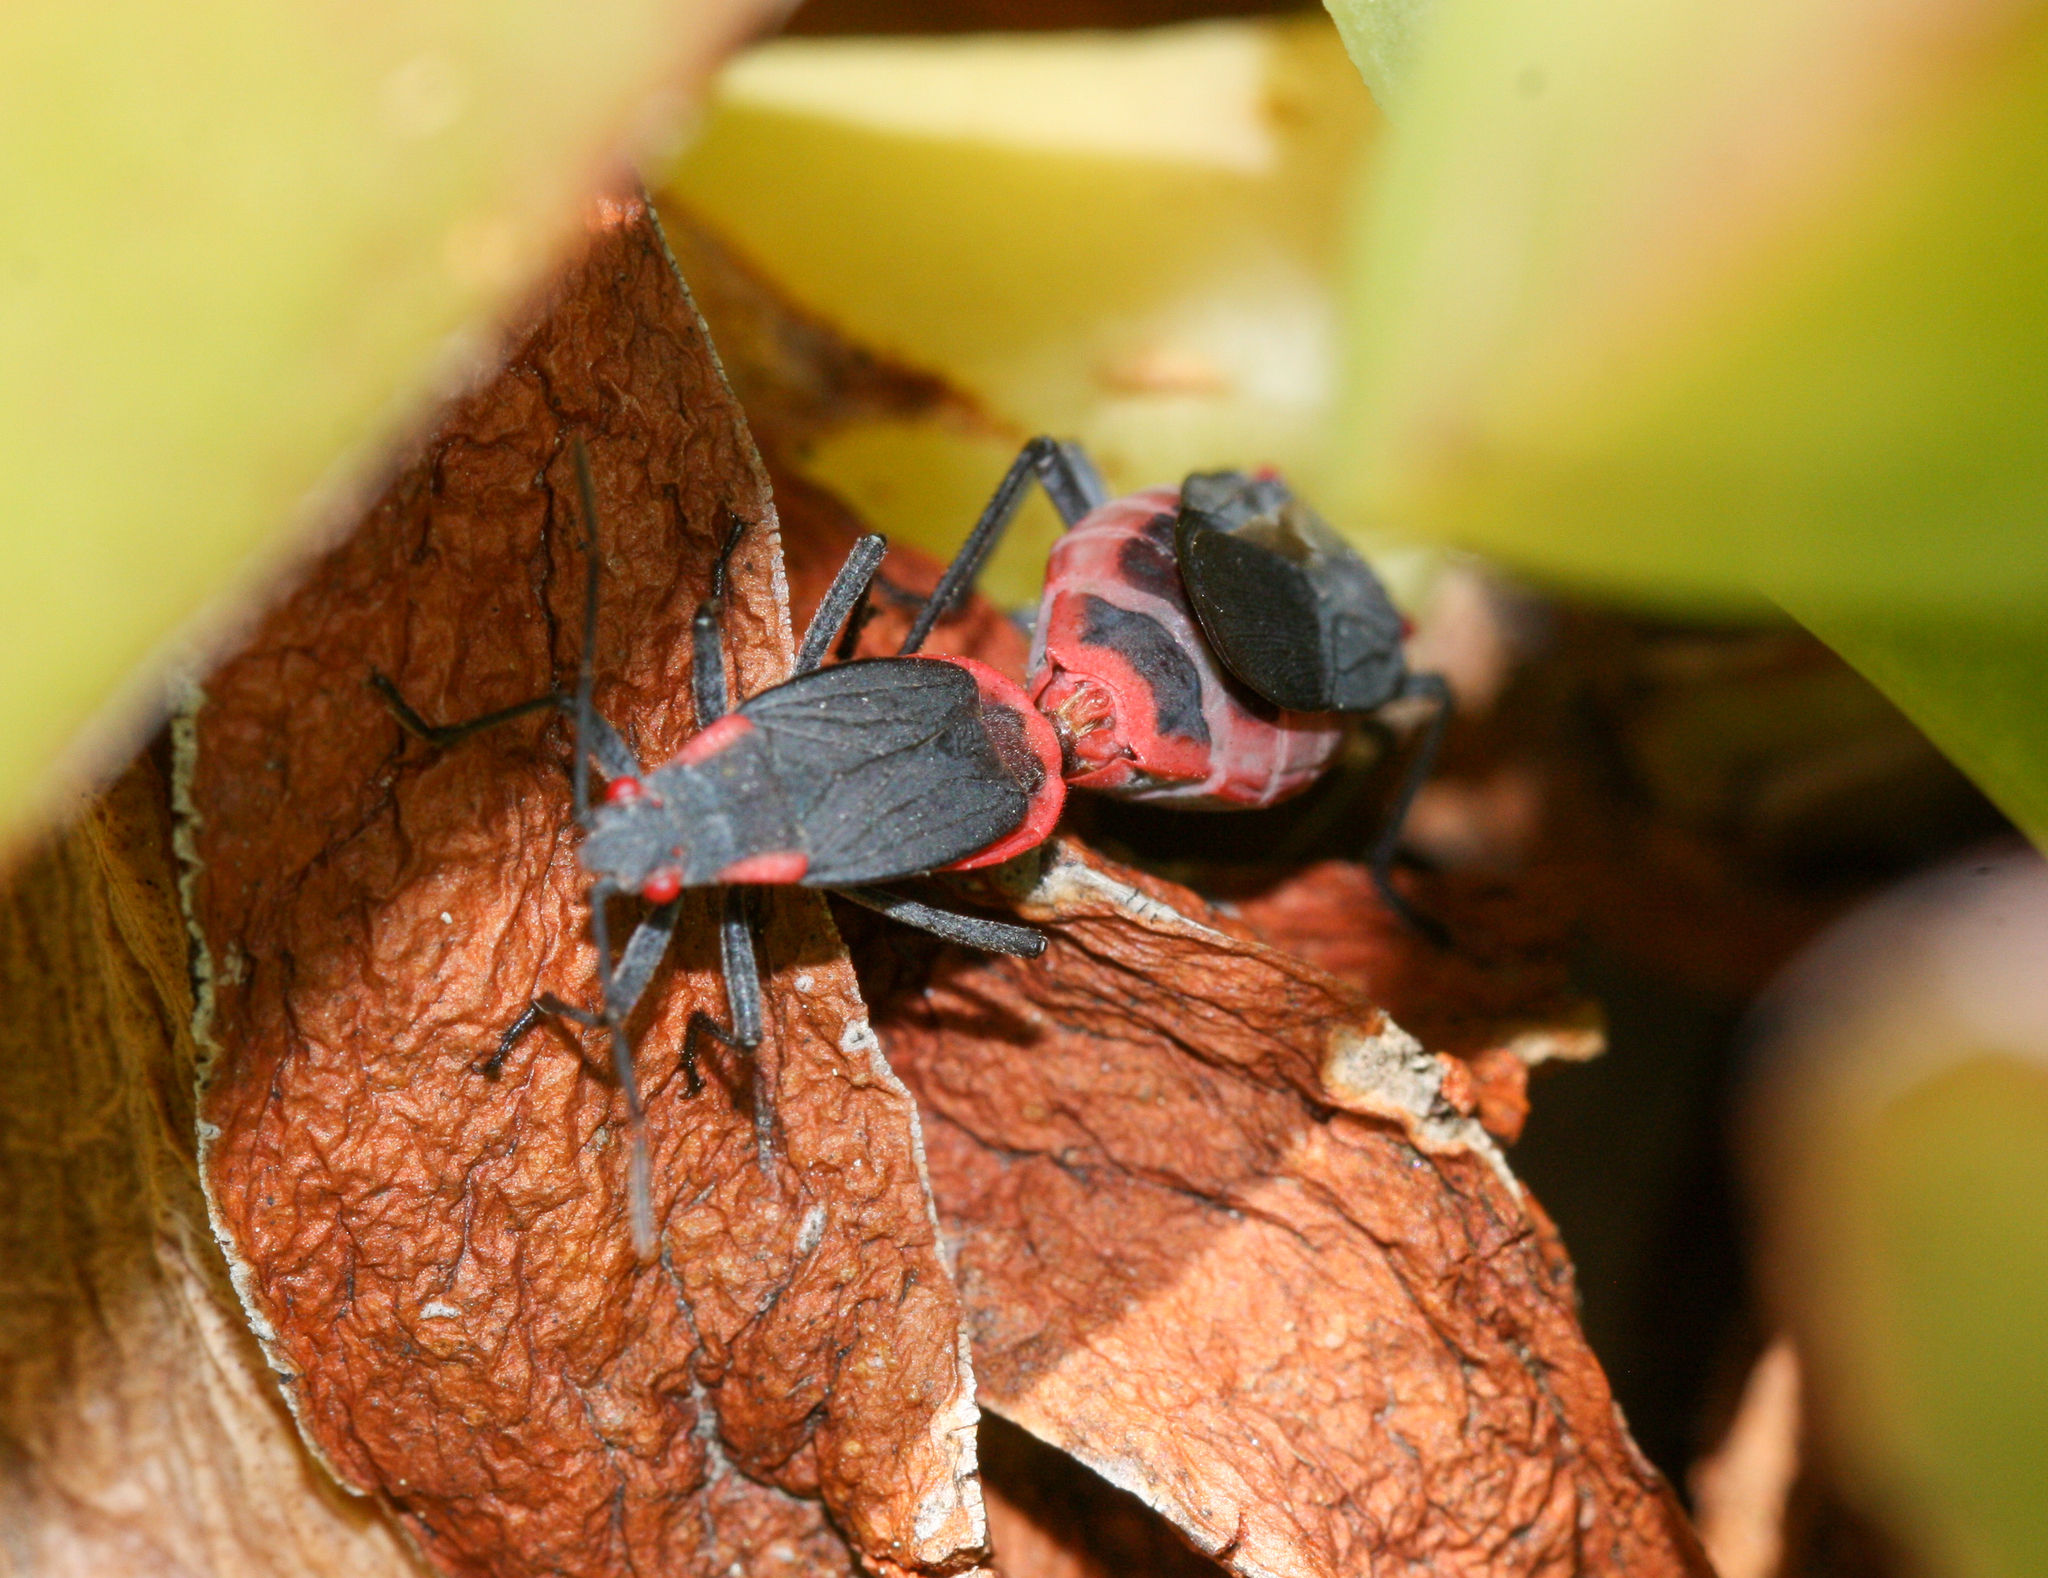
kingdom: Animalia
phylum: Arthropoda
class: Insecta
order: Hemiptera
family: Rhopalidae
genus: Jadera
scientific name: Jadera haematoloma
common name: Red-shouldered bug
